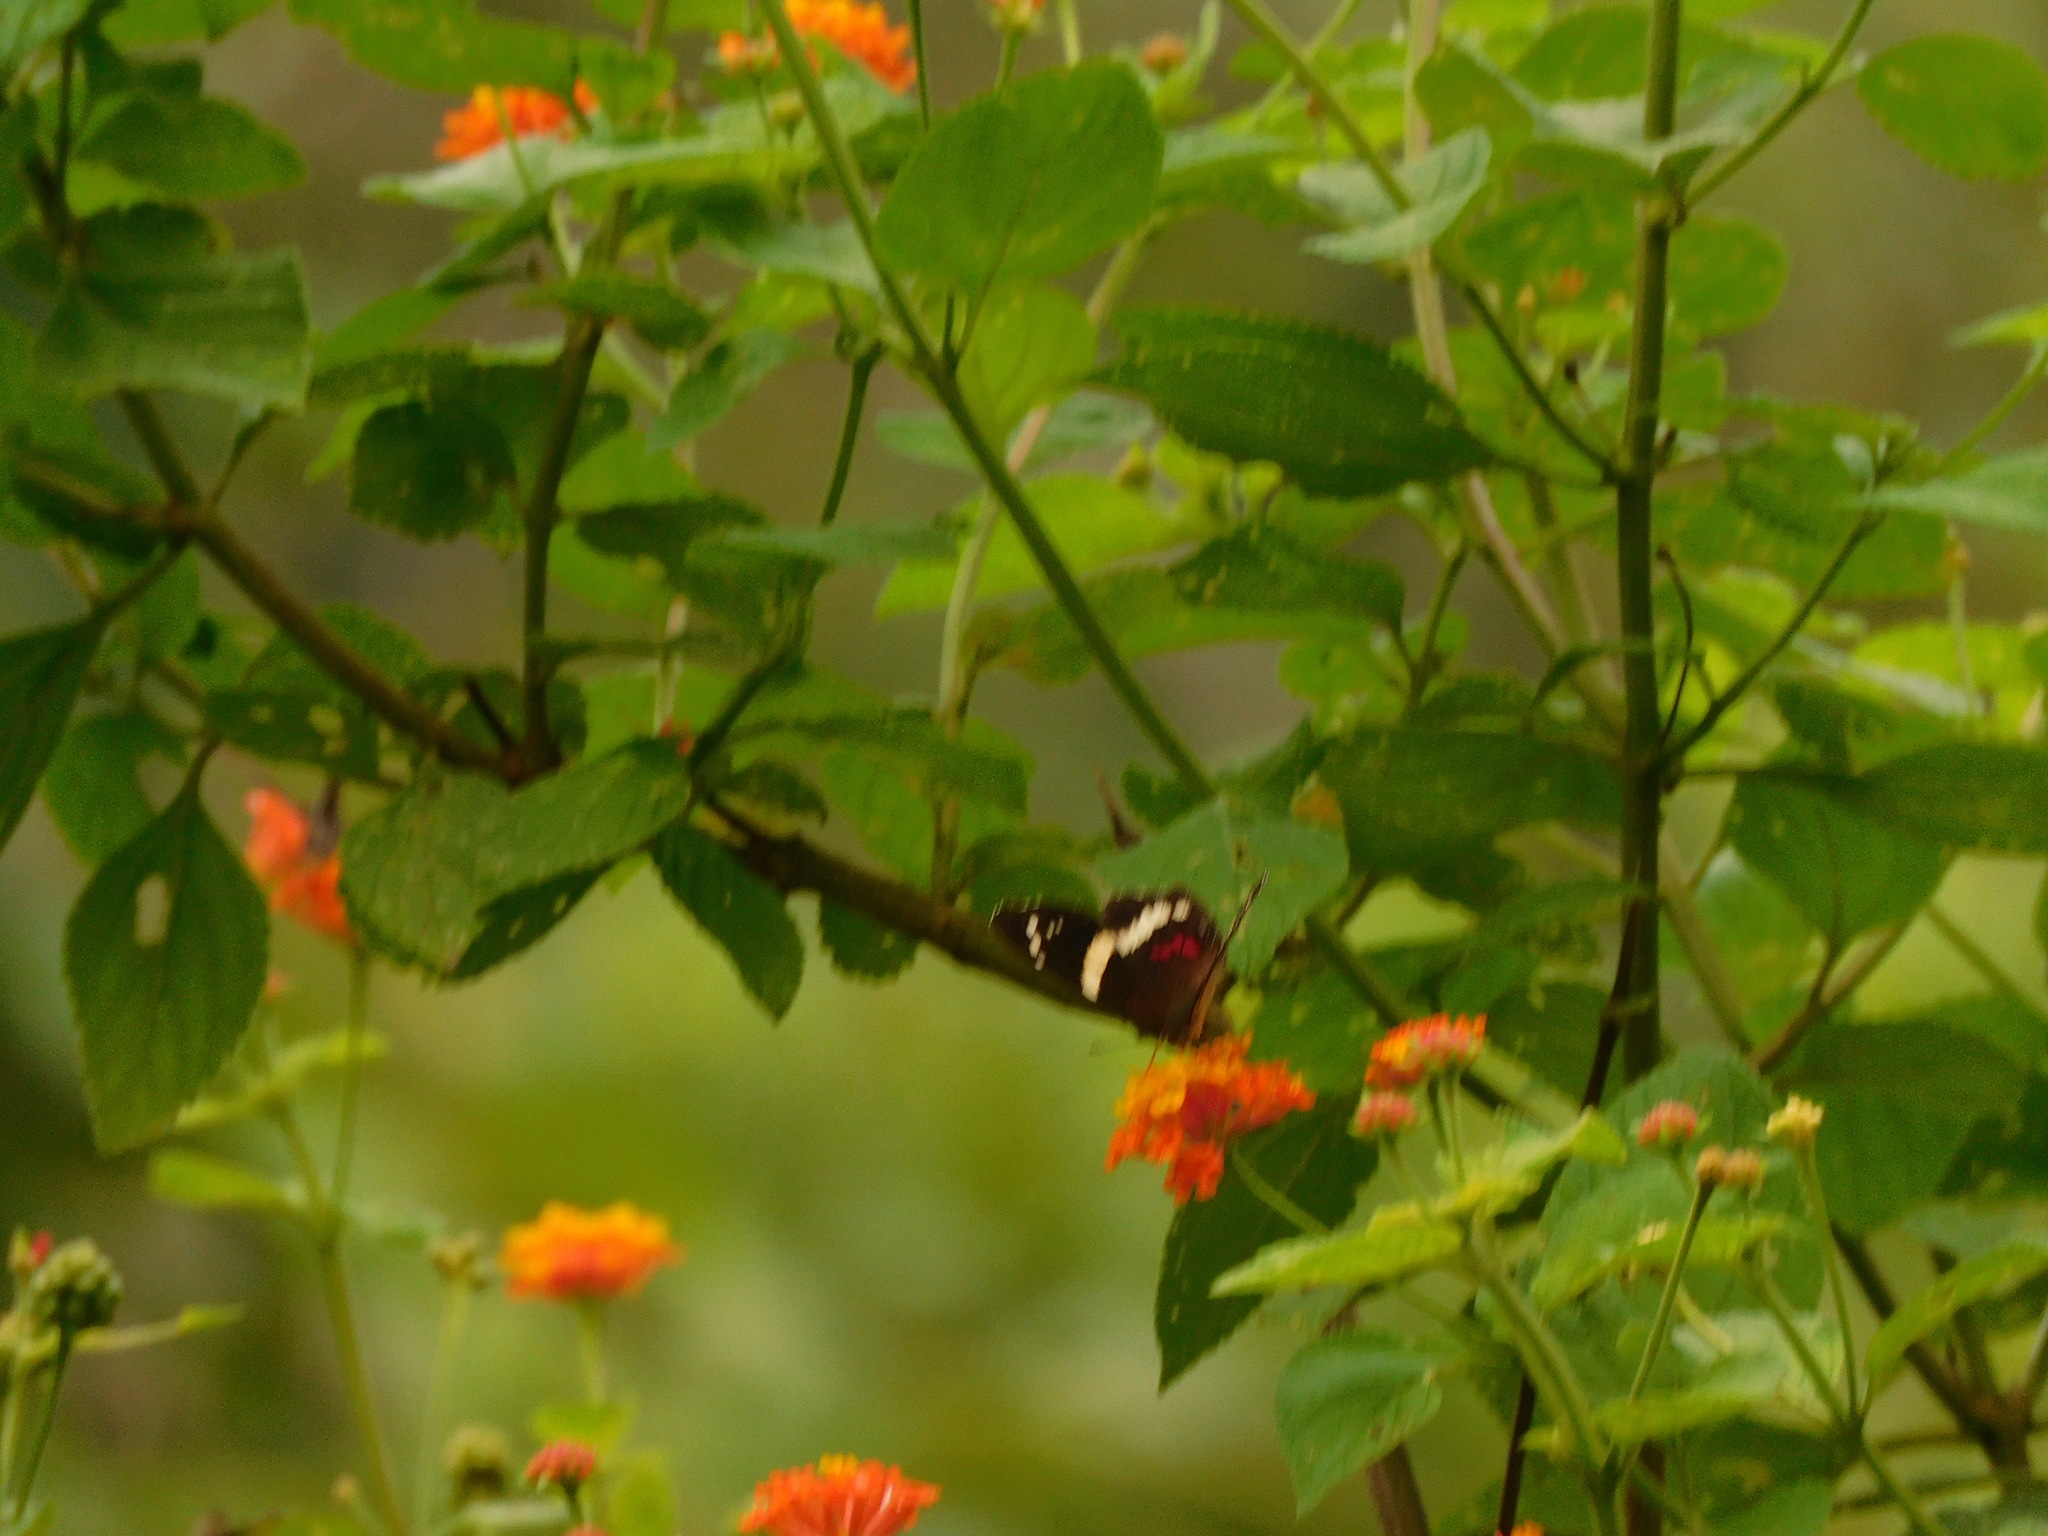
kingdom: Animalia
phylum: Arthropoda
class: Insecta
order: Lepidoptera
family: Nymphalidae
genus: Anartia
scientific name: Anartia fatima
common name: Banded peacock
